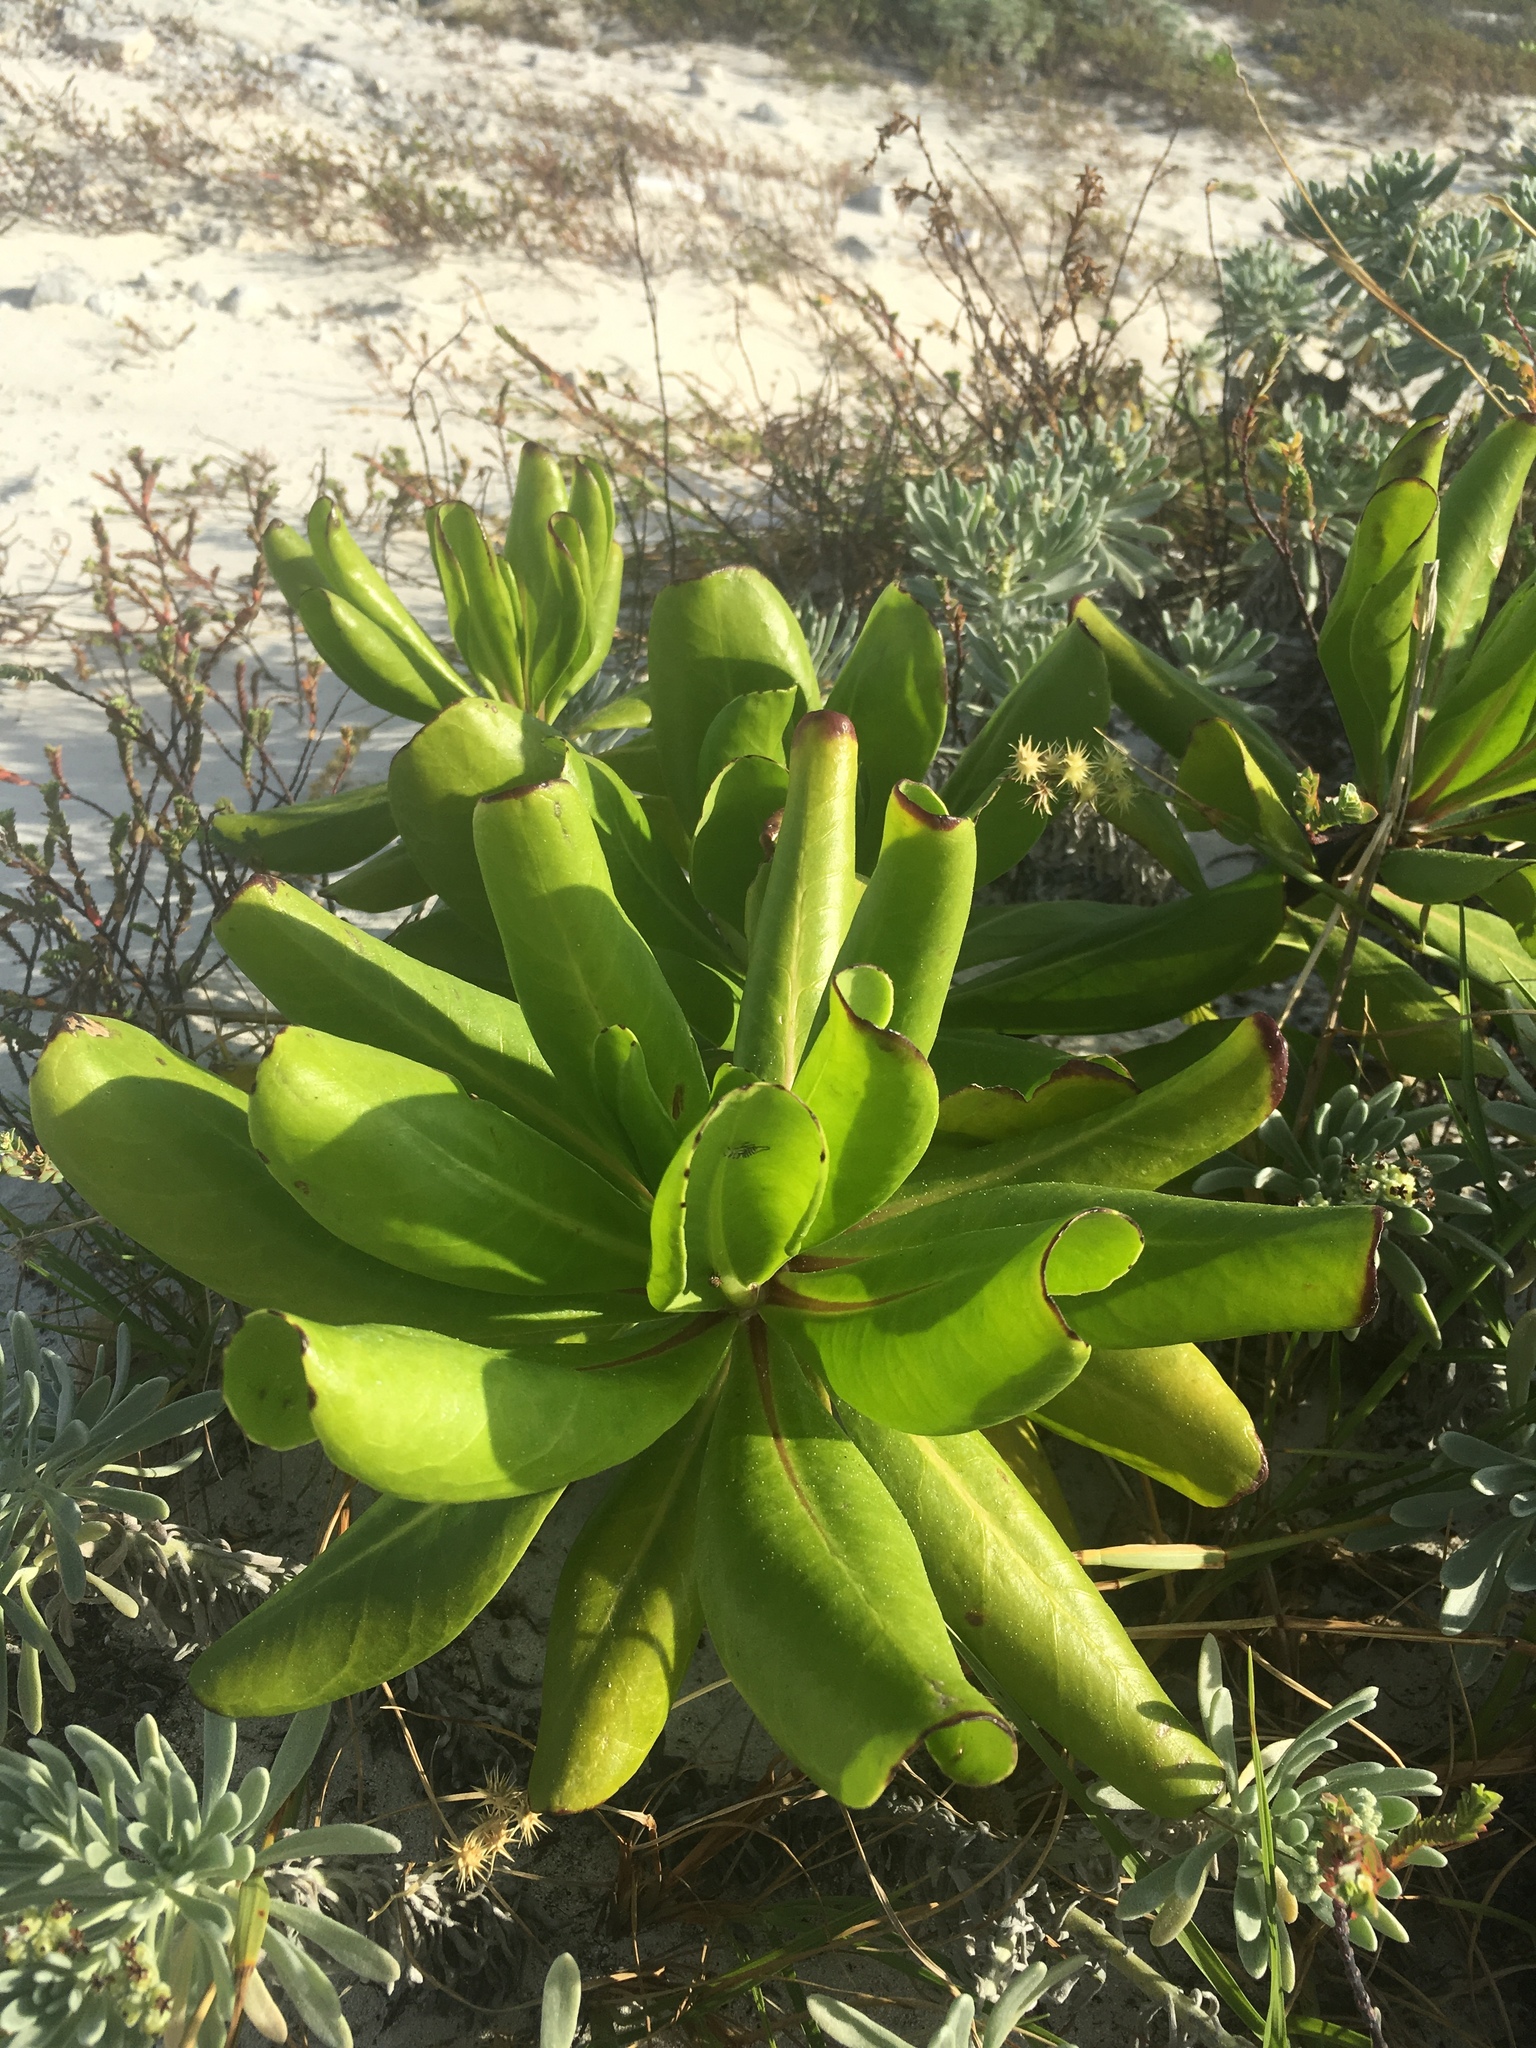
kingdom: Plantae
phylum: Tracheophyta
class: Magnoliopsida
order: Asterales
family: Goodeniaceae
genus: Scaevola
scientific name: Scaevola taccada
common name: Sea lettucetree
